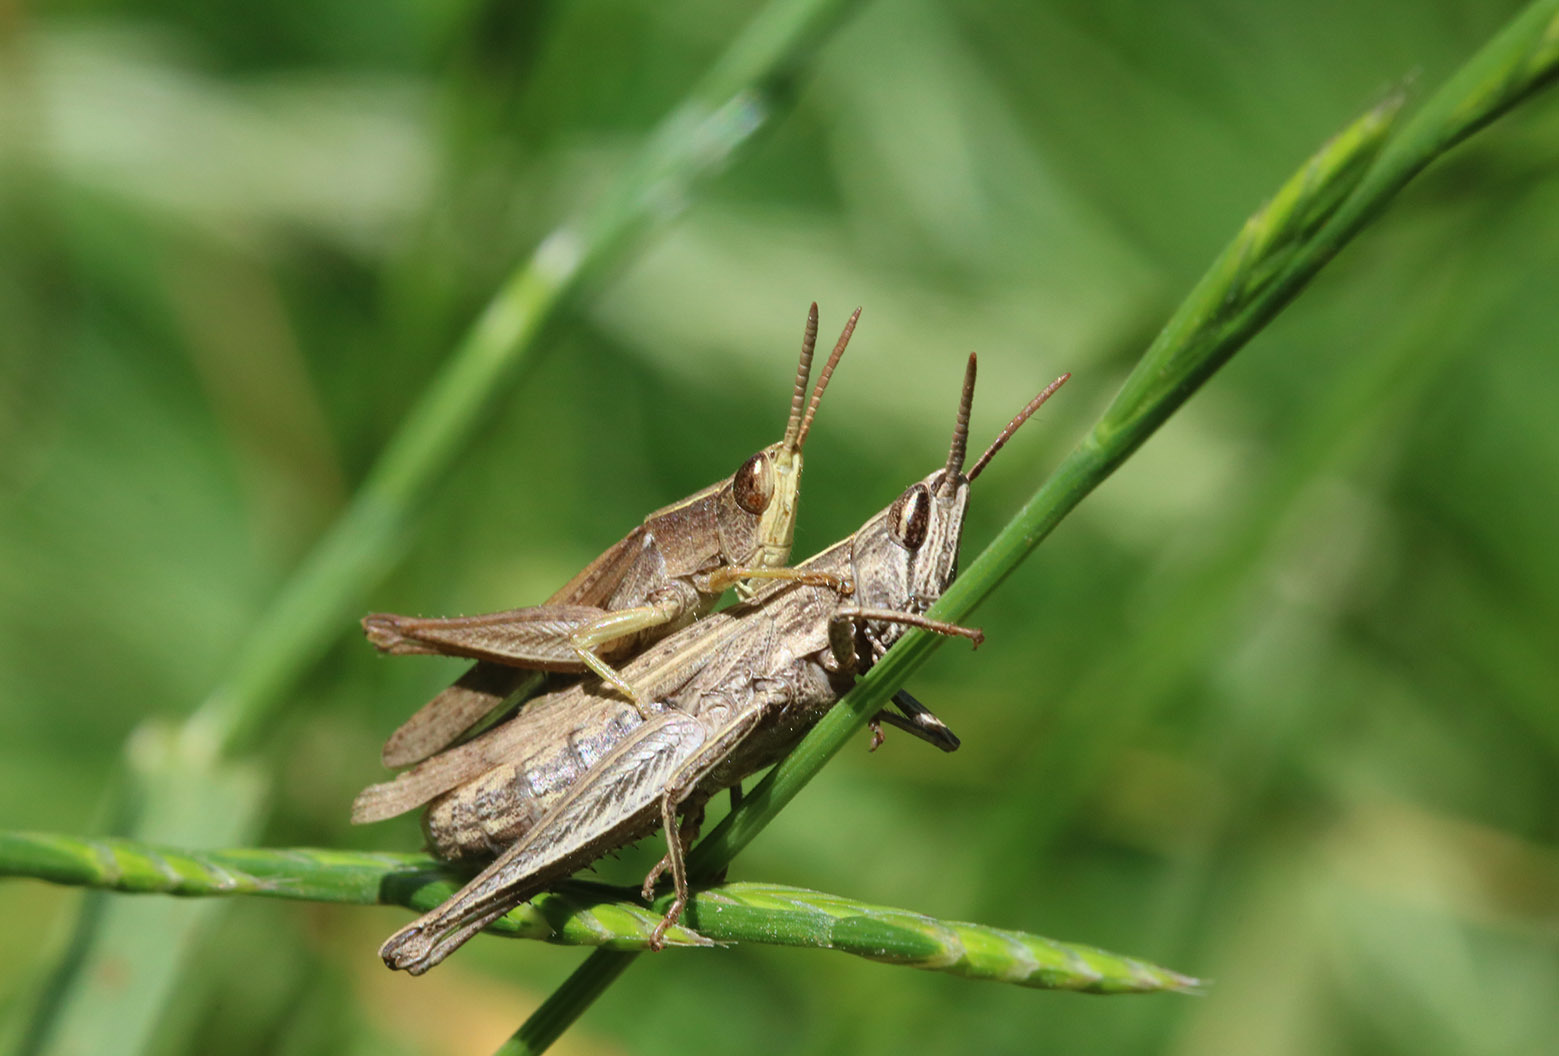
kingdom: Animalia
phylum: Arthropoda
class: Insecta
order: Orthoptera
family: Acrididae
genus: Laplatacris
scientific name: Laplatacris dispar
